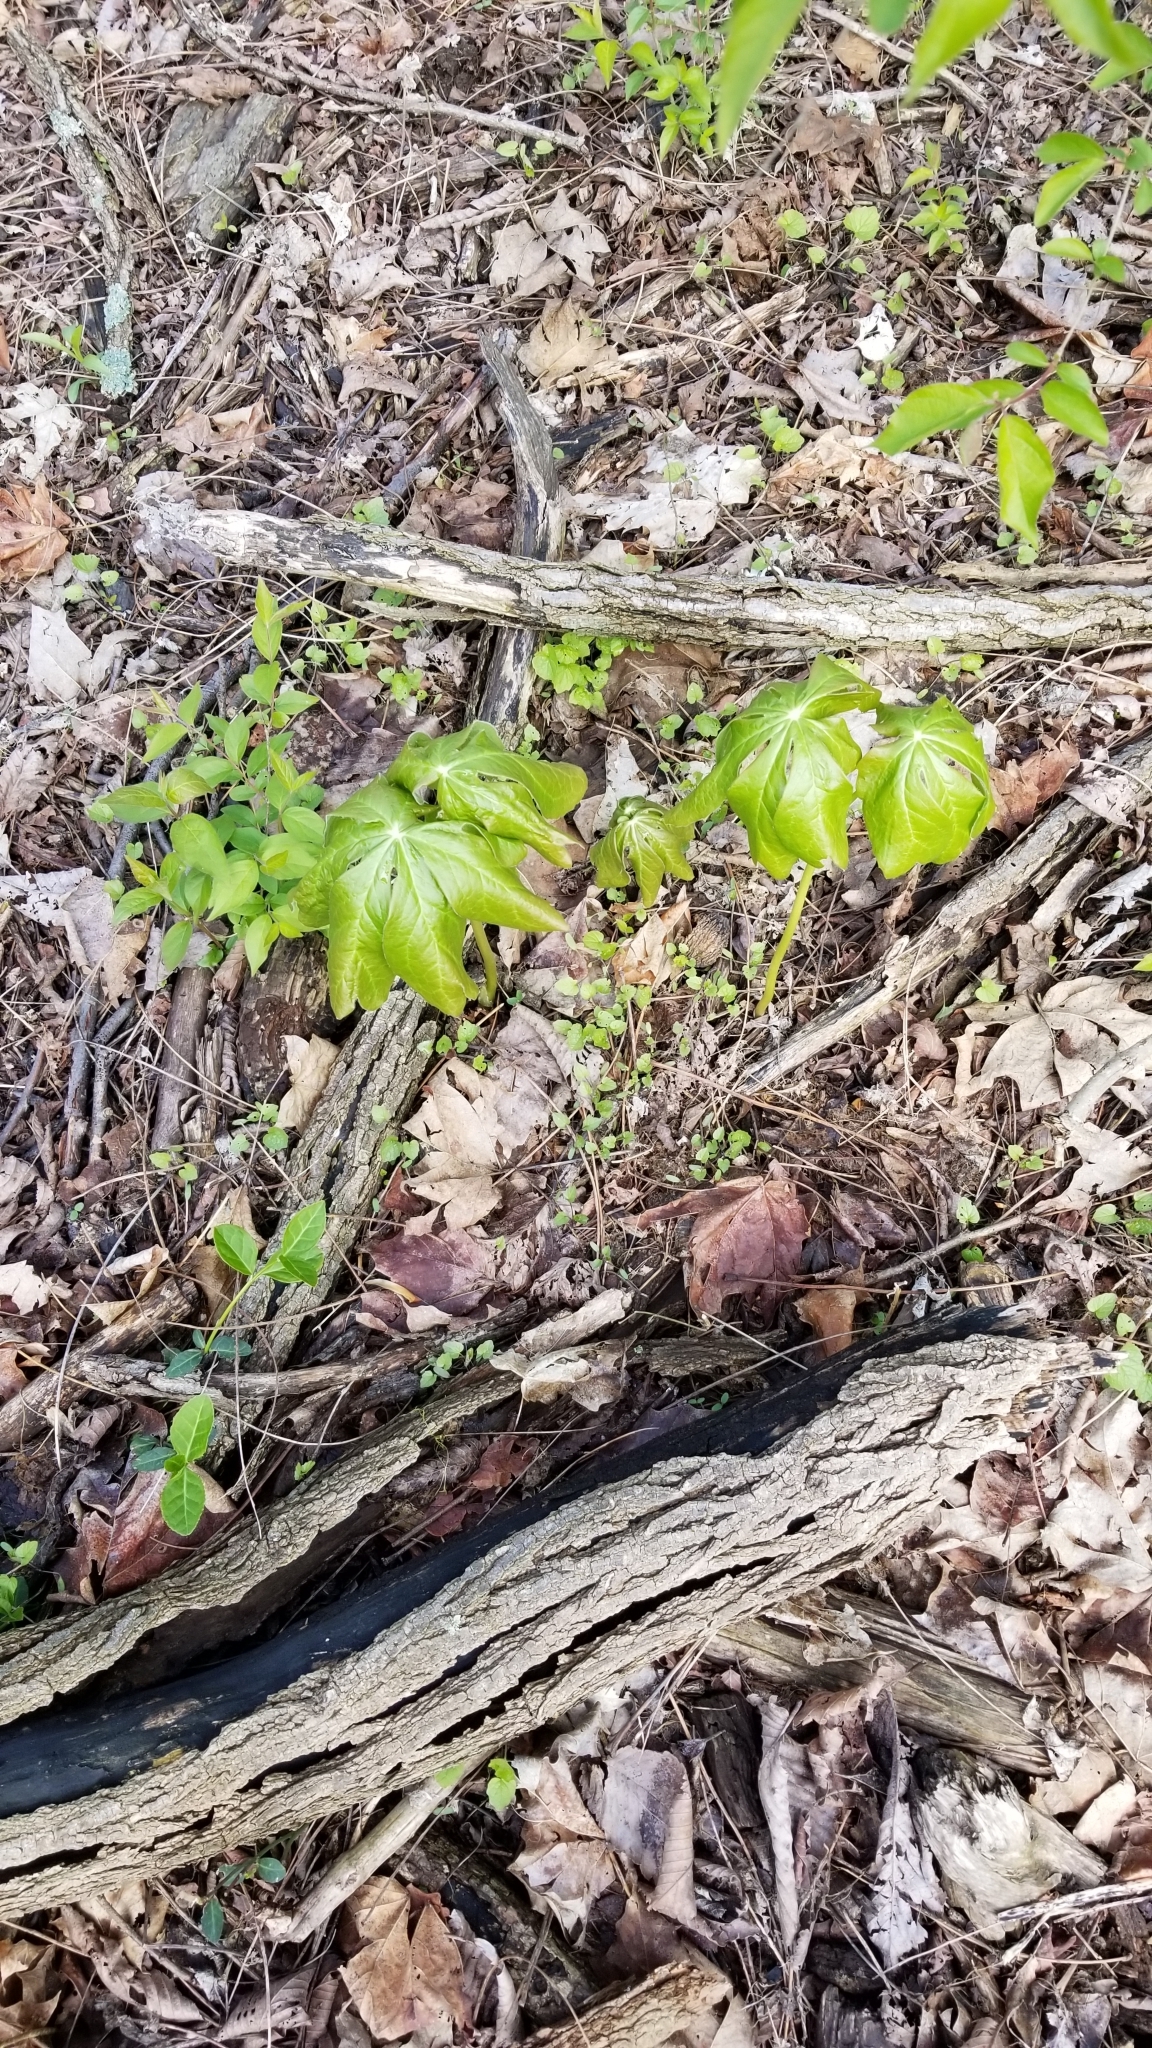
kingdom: Plantae
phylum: Tracheophyta
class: Magnoliopsida
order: Ranunculales
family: Berberidaceae
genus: Podophyllum
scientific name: Podophyllum peltatum
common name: Wild mandrake
